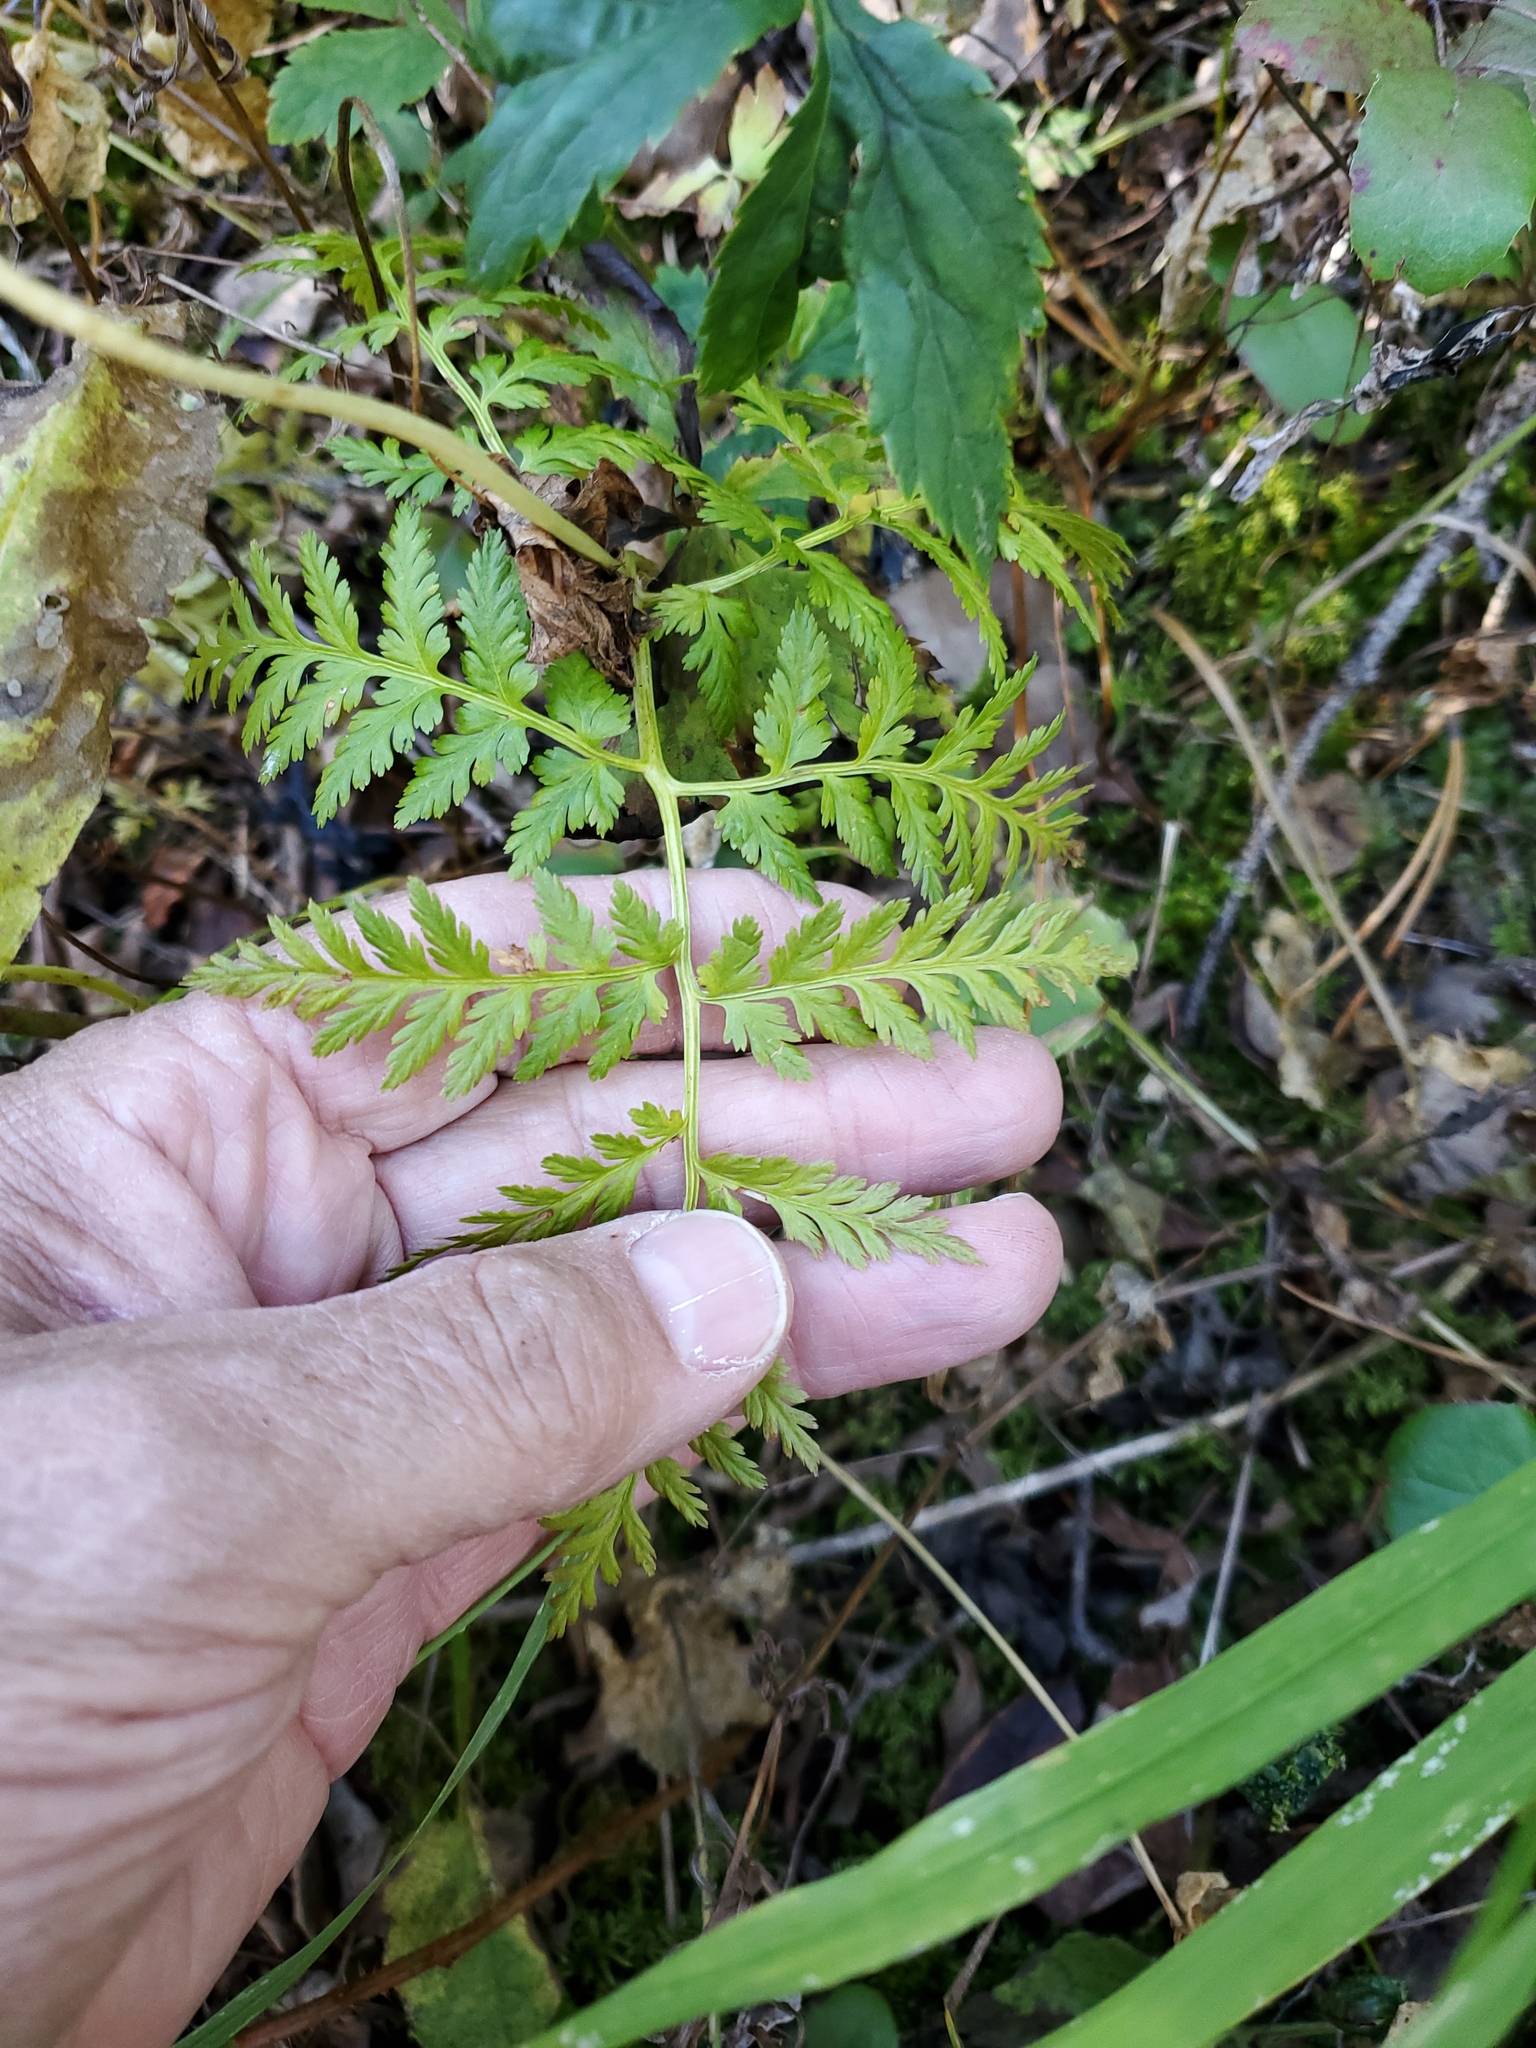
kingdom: Plantae
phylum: Tracheophyta
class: Polypodiopsida
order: Ophioglossales
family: Ophioglossaceae
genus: Botrypus
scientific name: Botrypus virginianus
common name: Common grapefern
